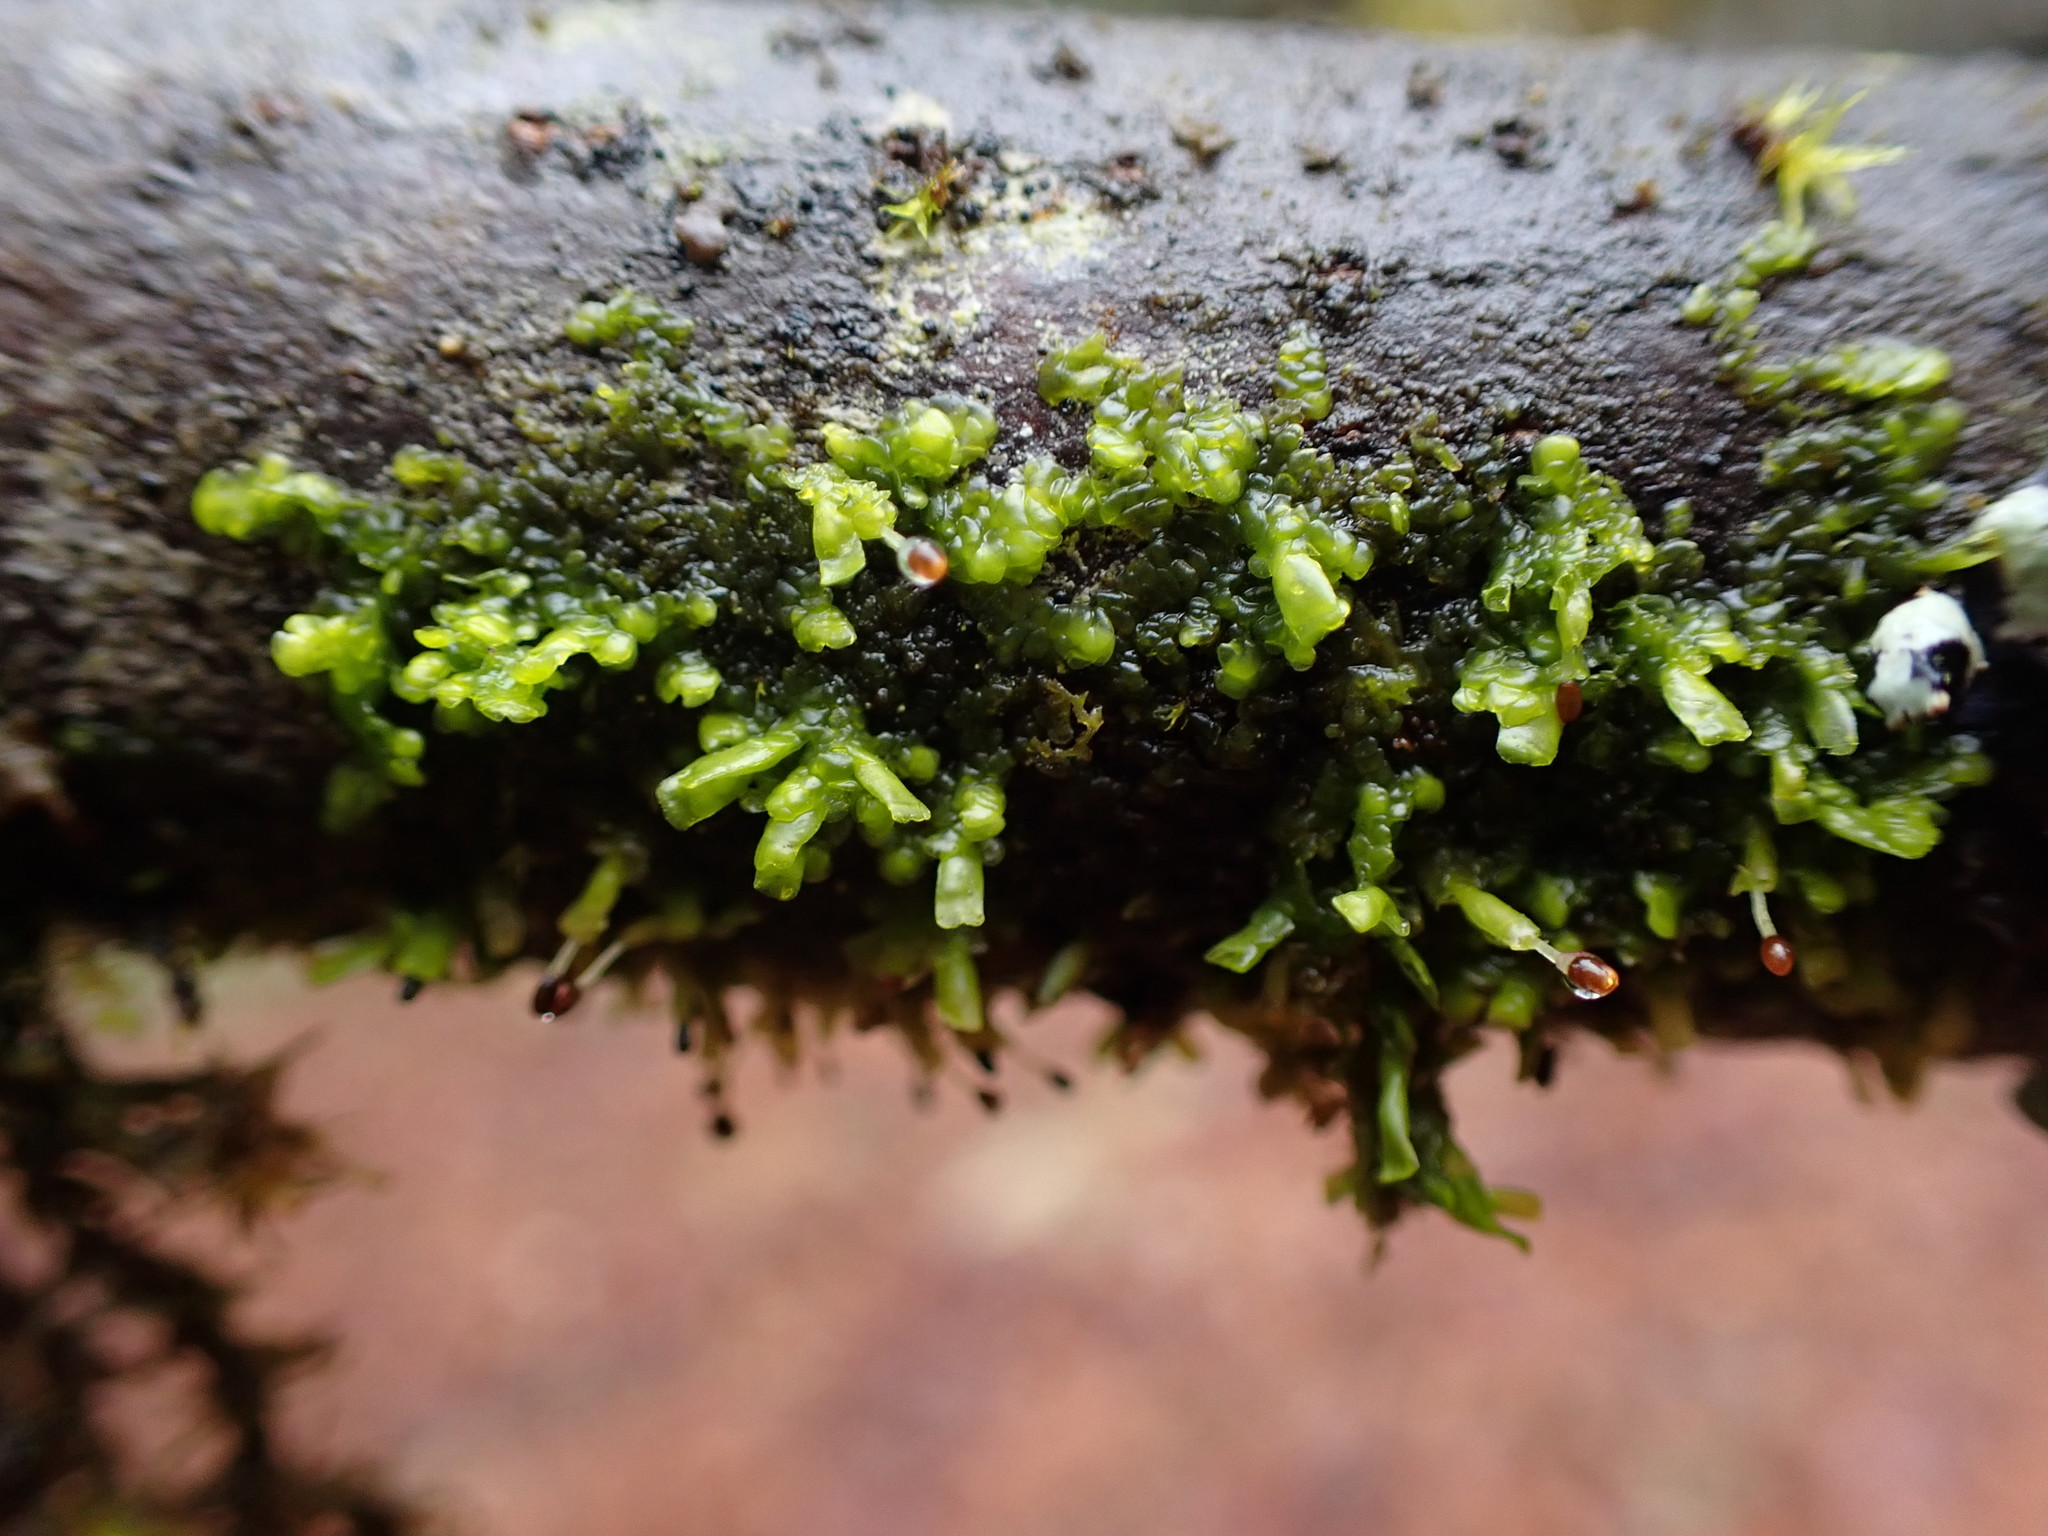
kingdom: Plantae
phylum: Marchantiophyta
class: Jungermanniopsida
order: Porellales
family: Radulaceae
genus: Radula
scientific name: Radula complanata
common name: Flat-leaved scalewort
